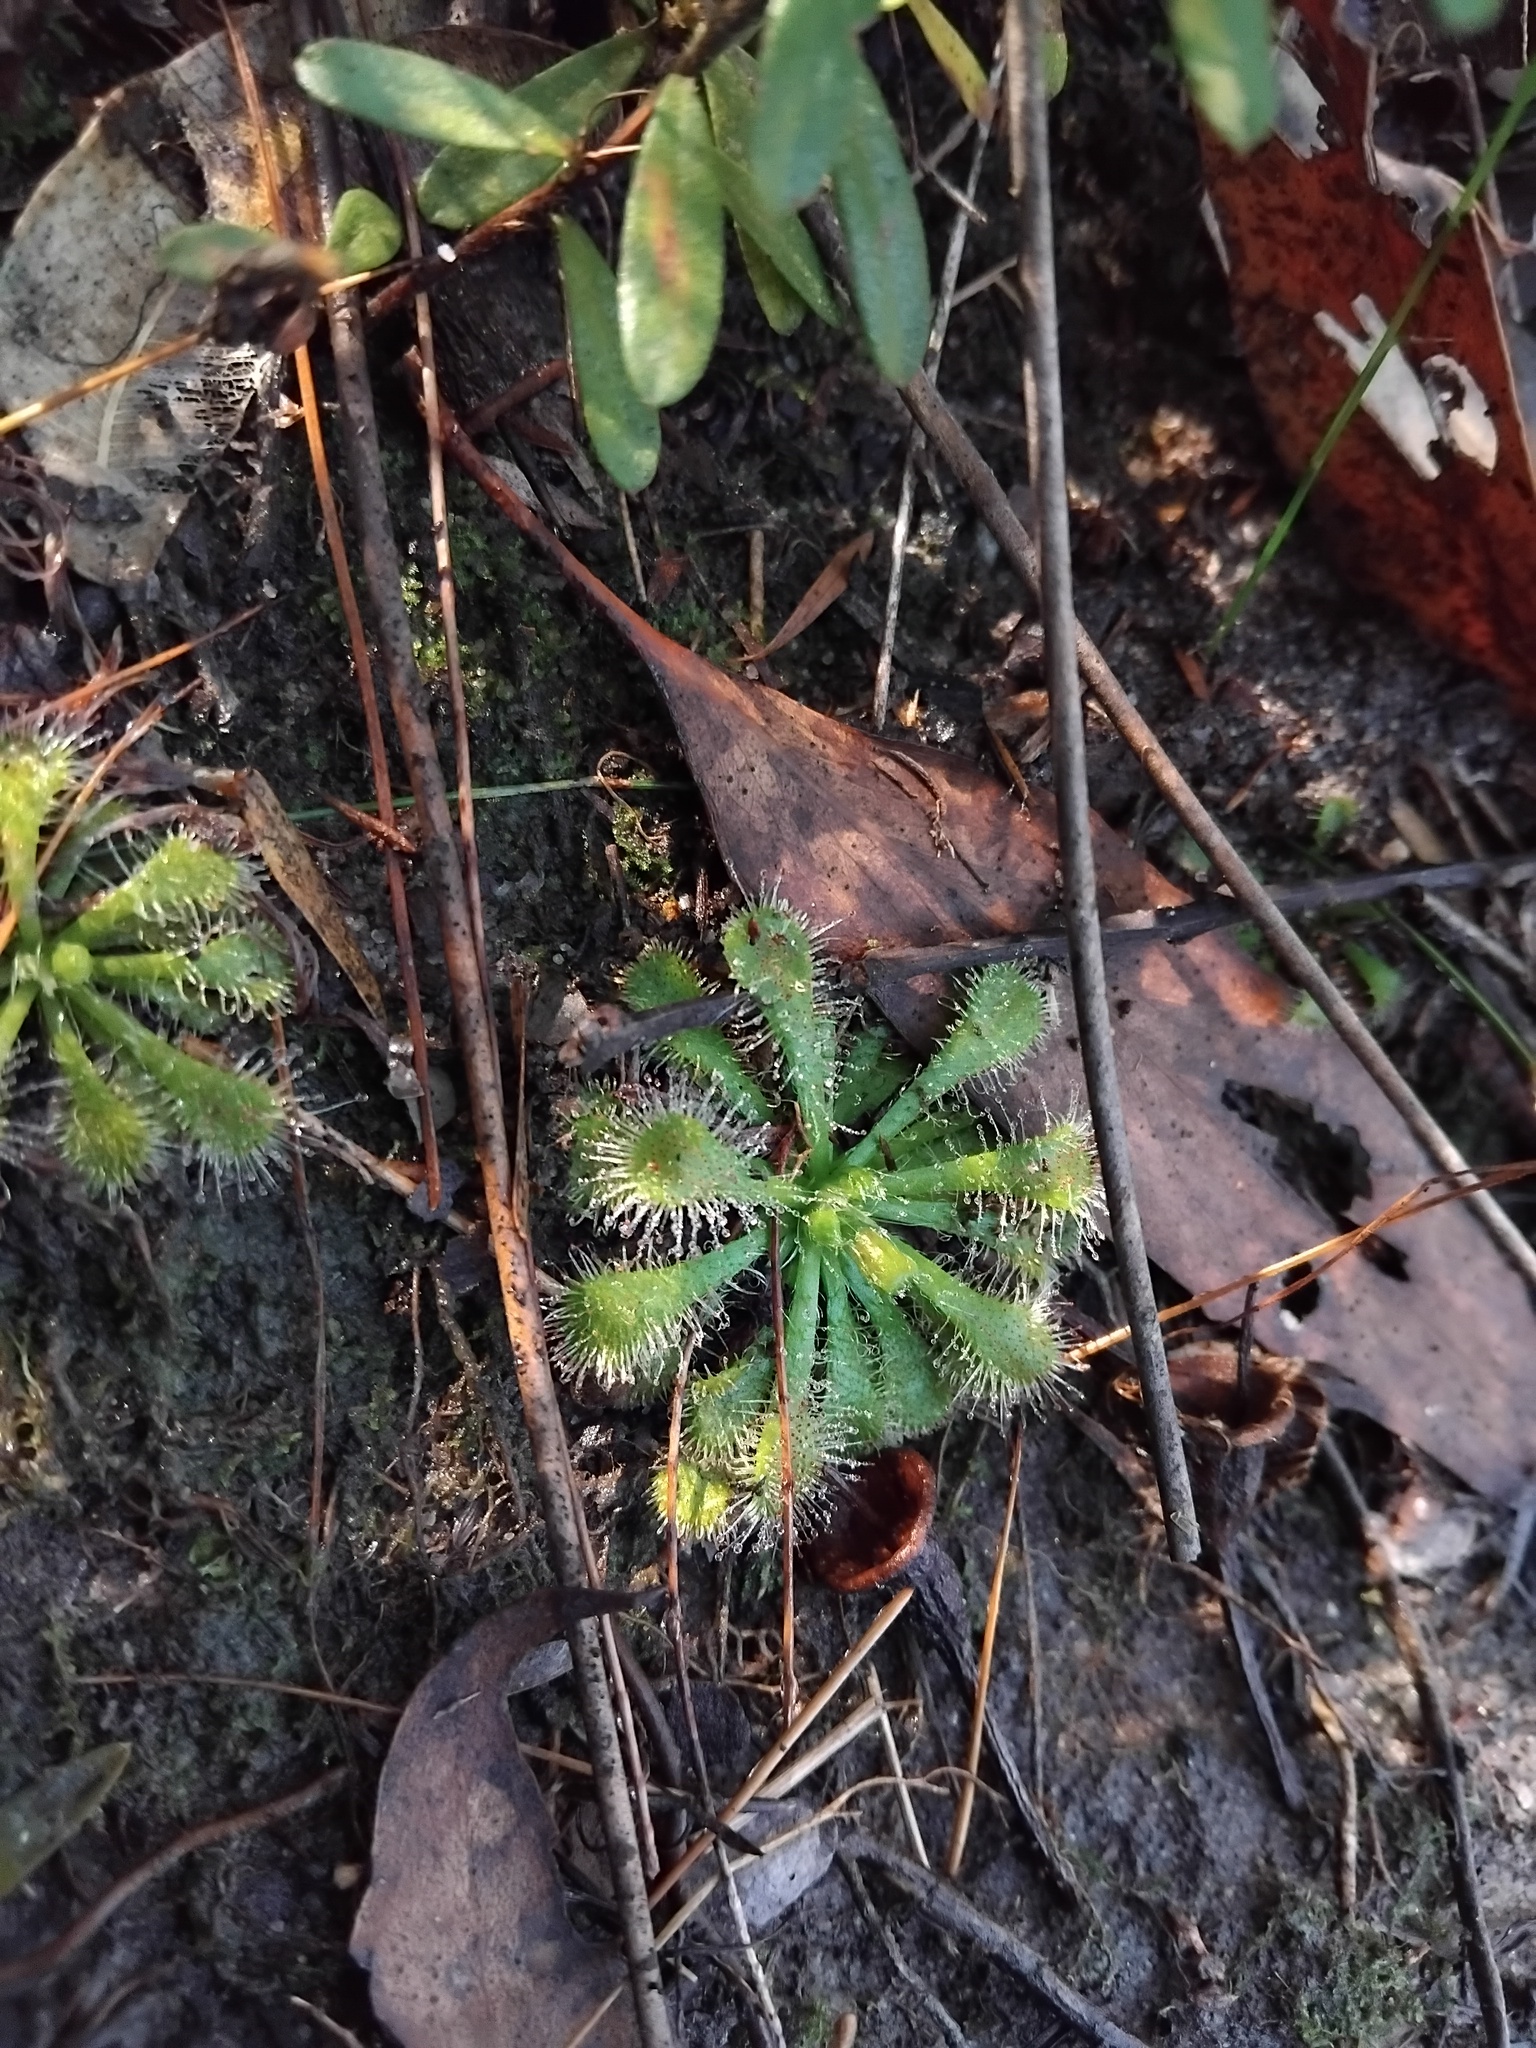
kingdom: Plantae
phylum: Tracheophyta
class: Magnoliopsida
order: Caryophyllales
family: Droseraceae
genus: Drosera
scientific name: Drosera spatulata
